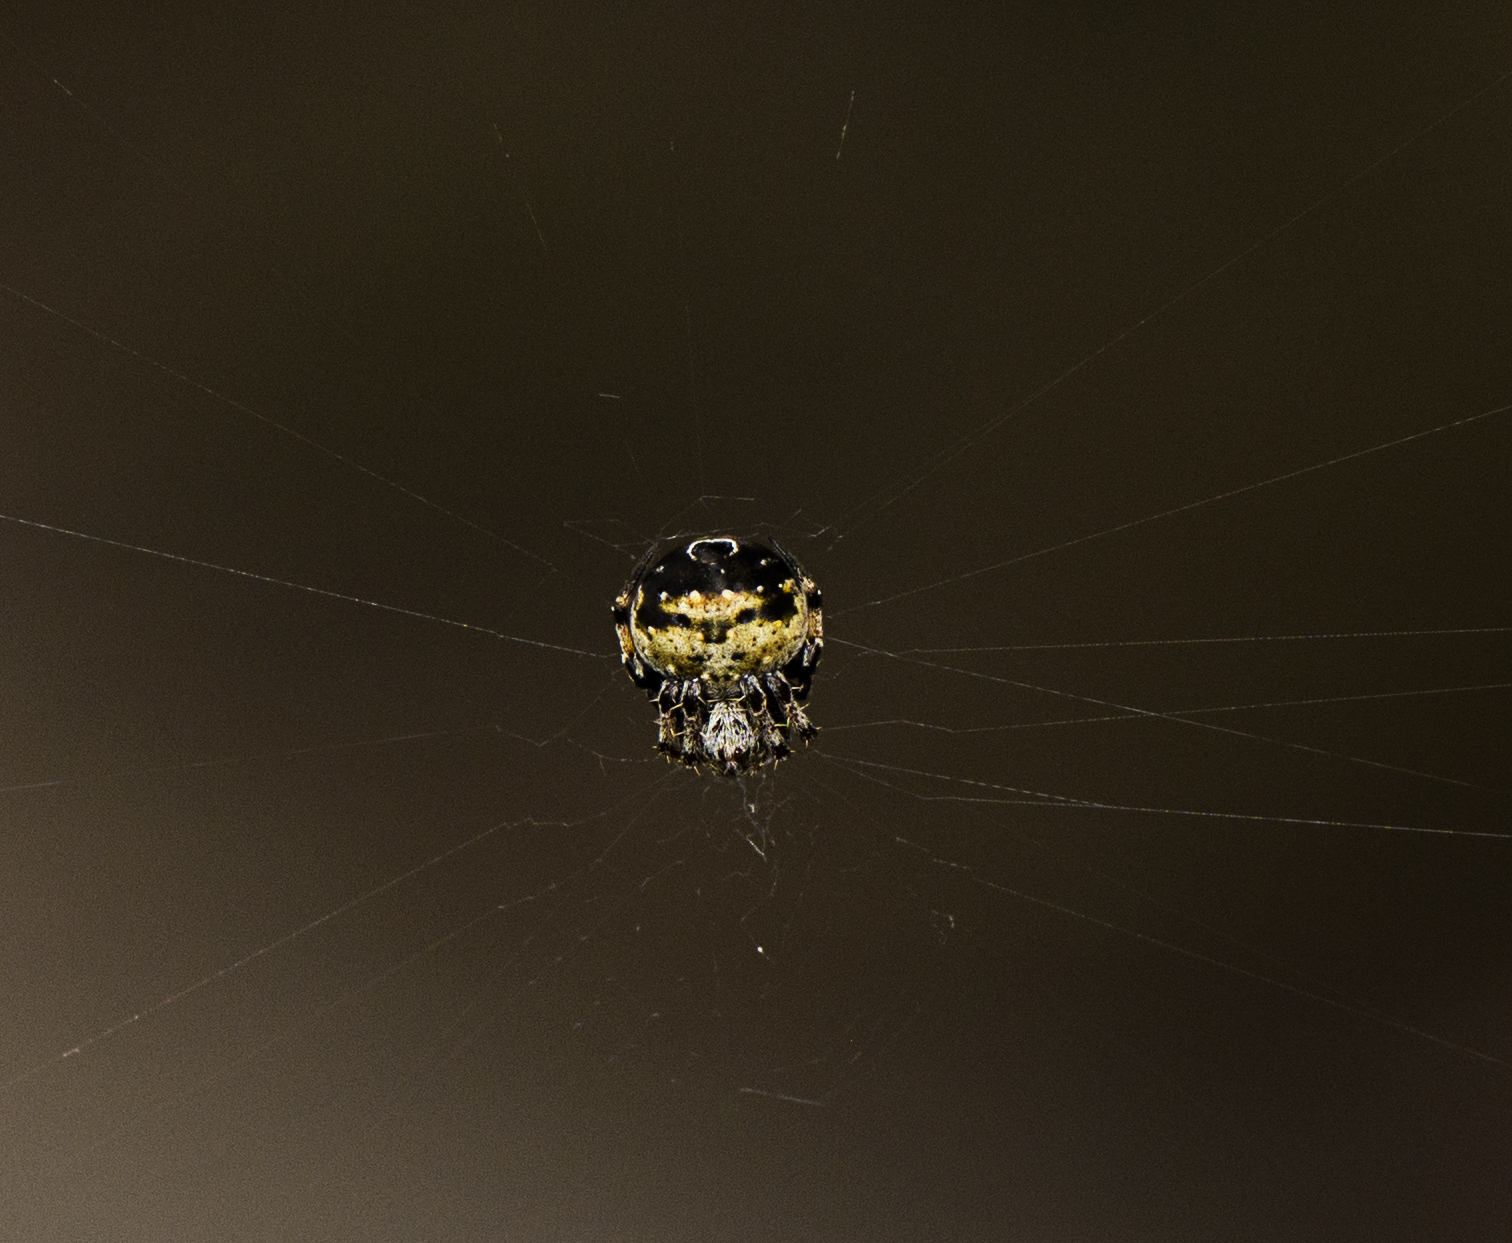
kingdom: Animalia
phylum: Arthropoda
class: Arachnida
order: Araneae
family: Araneidae
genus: Araneus
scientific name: Araneus rotundulus
